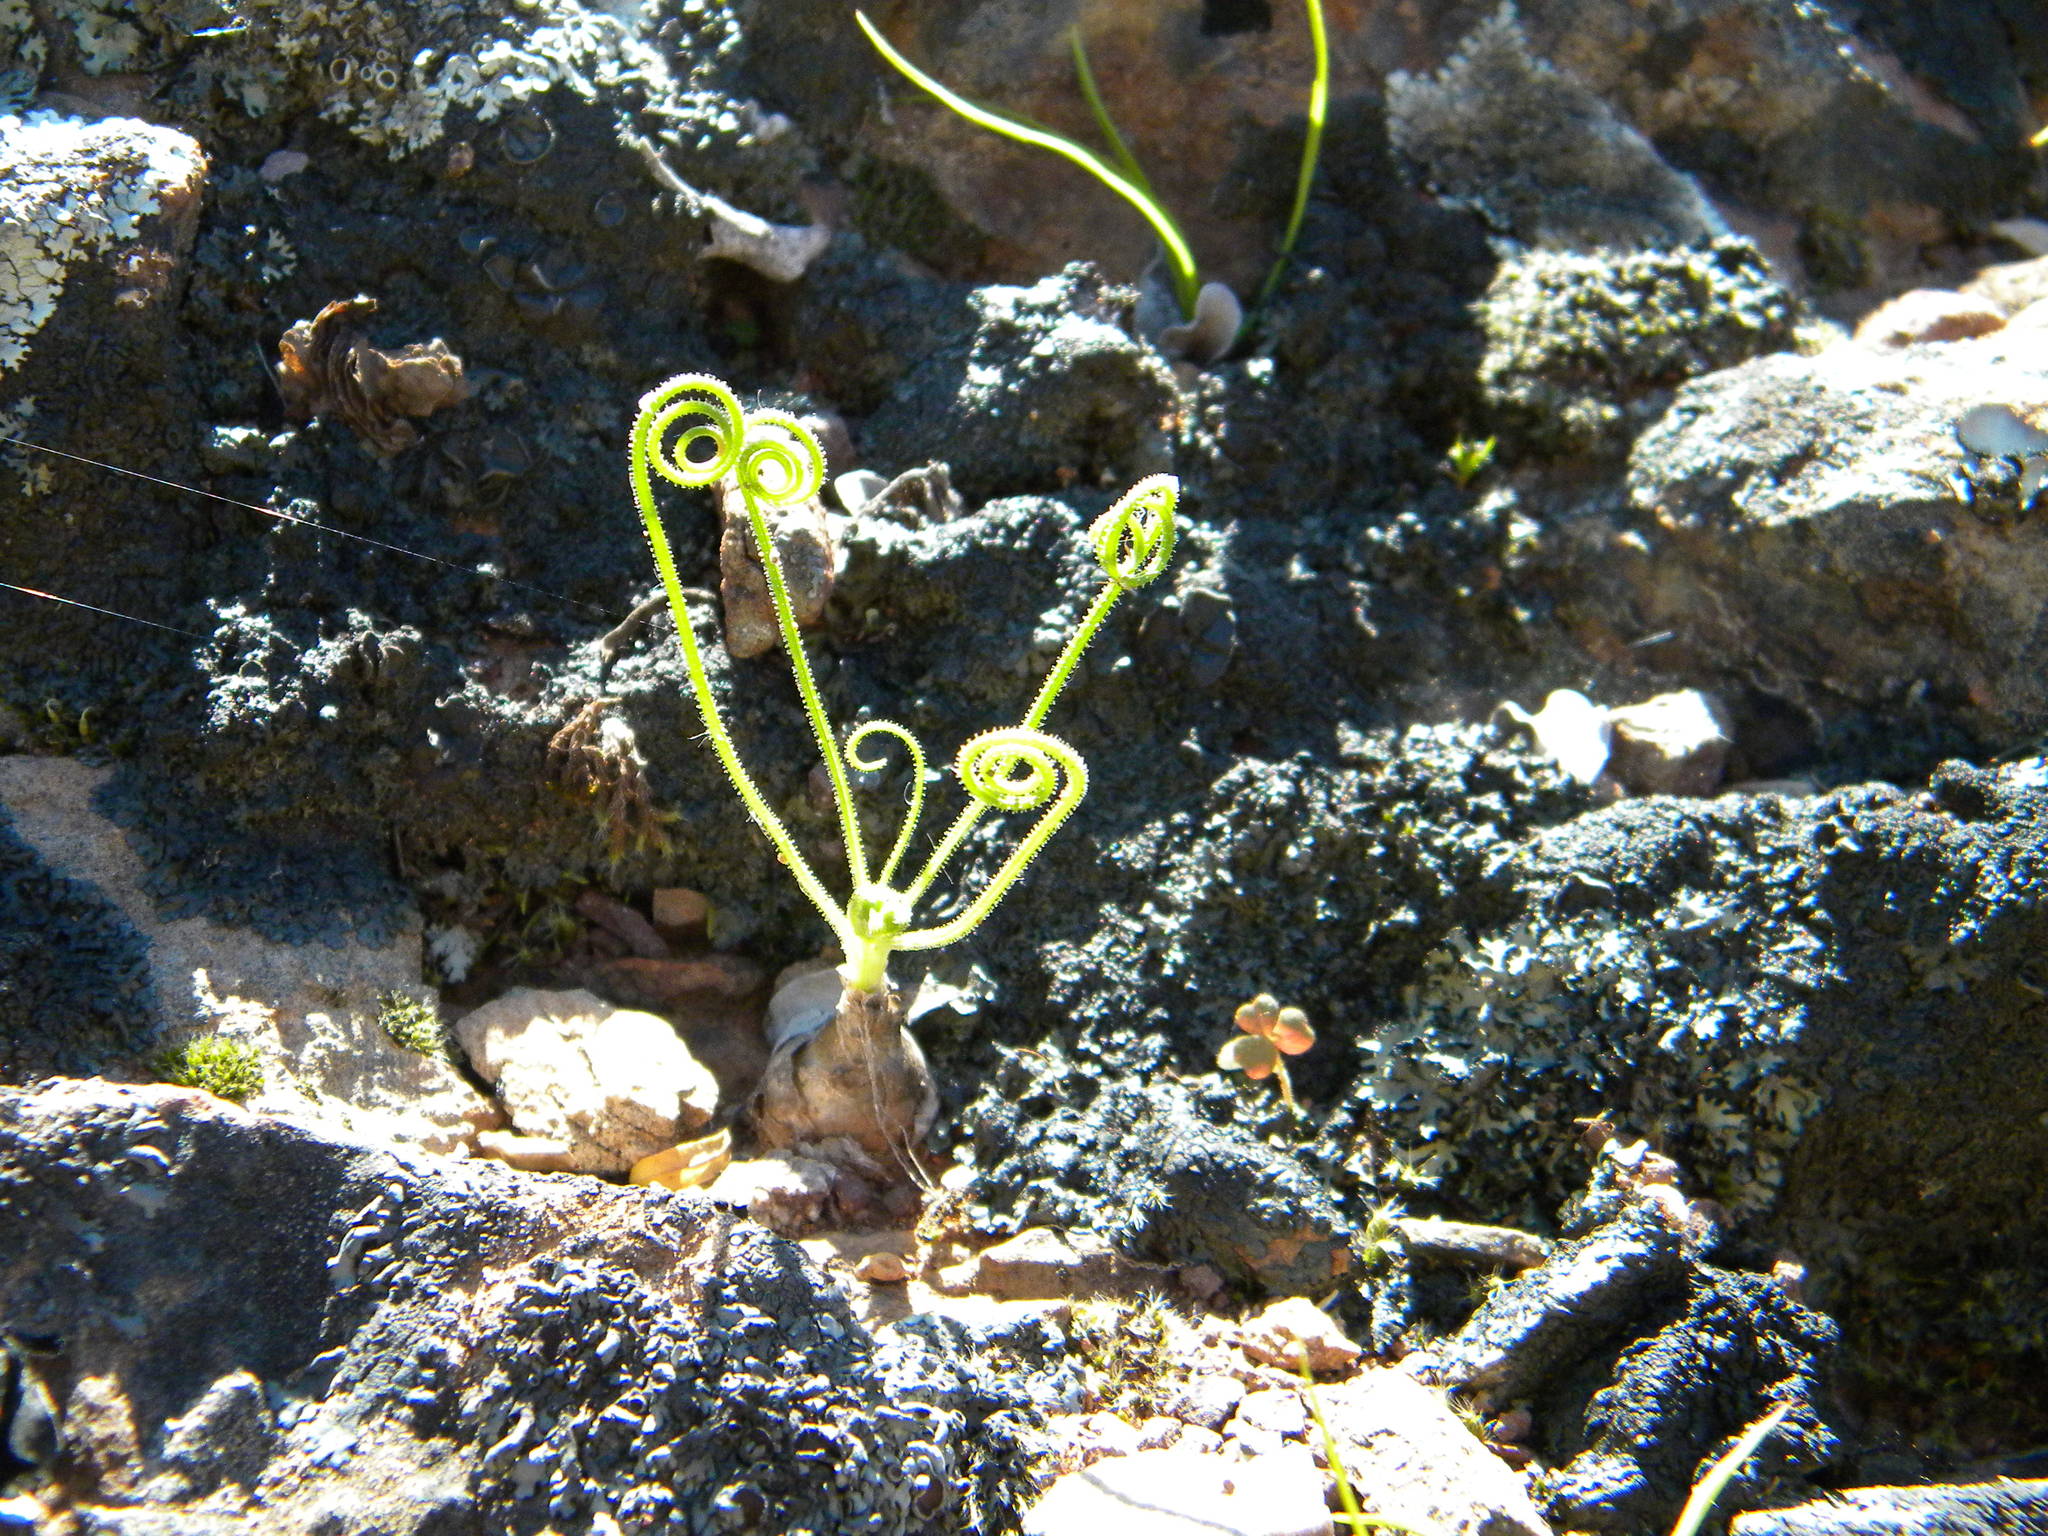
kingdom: Plantae
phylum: Tracheophyta
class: Liliopsida
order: Asparagales
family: Asparagaceae
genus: Albuca
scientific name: Albuca spiralis
